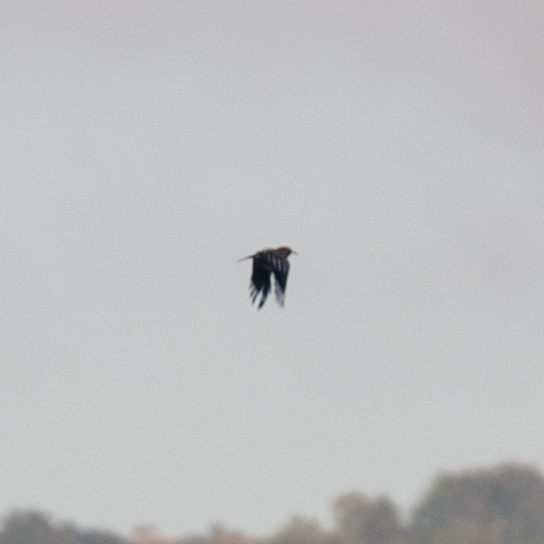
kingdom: Animalia
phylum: Chordata
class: Aves
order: Bucerotiformes
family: Upupidae
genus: Upupa
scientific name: Upupa epops
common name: Eurasian hoopoe
